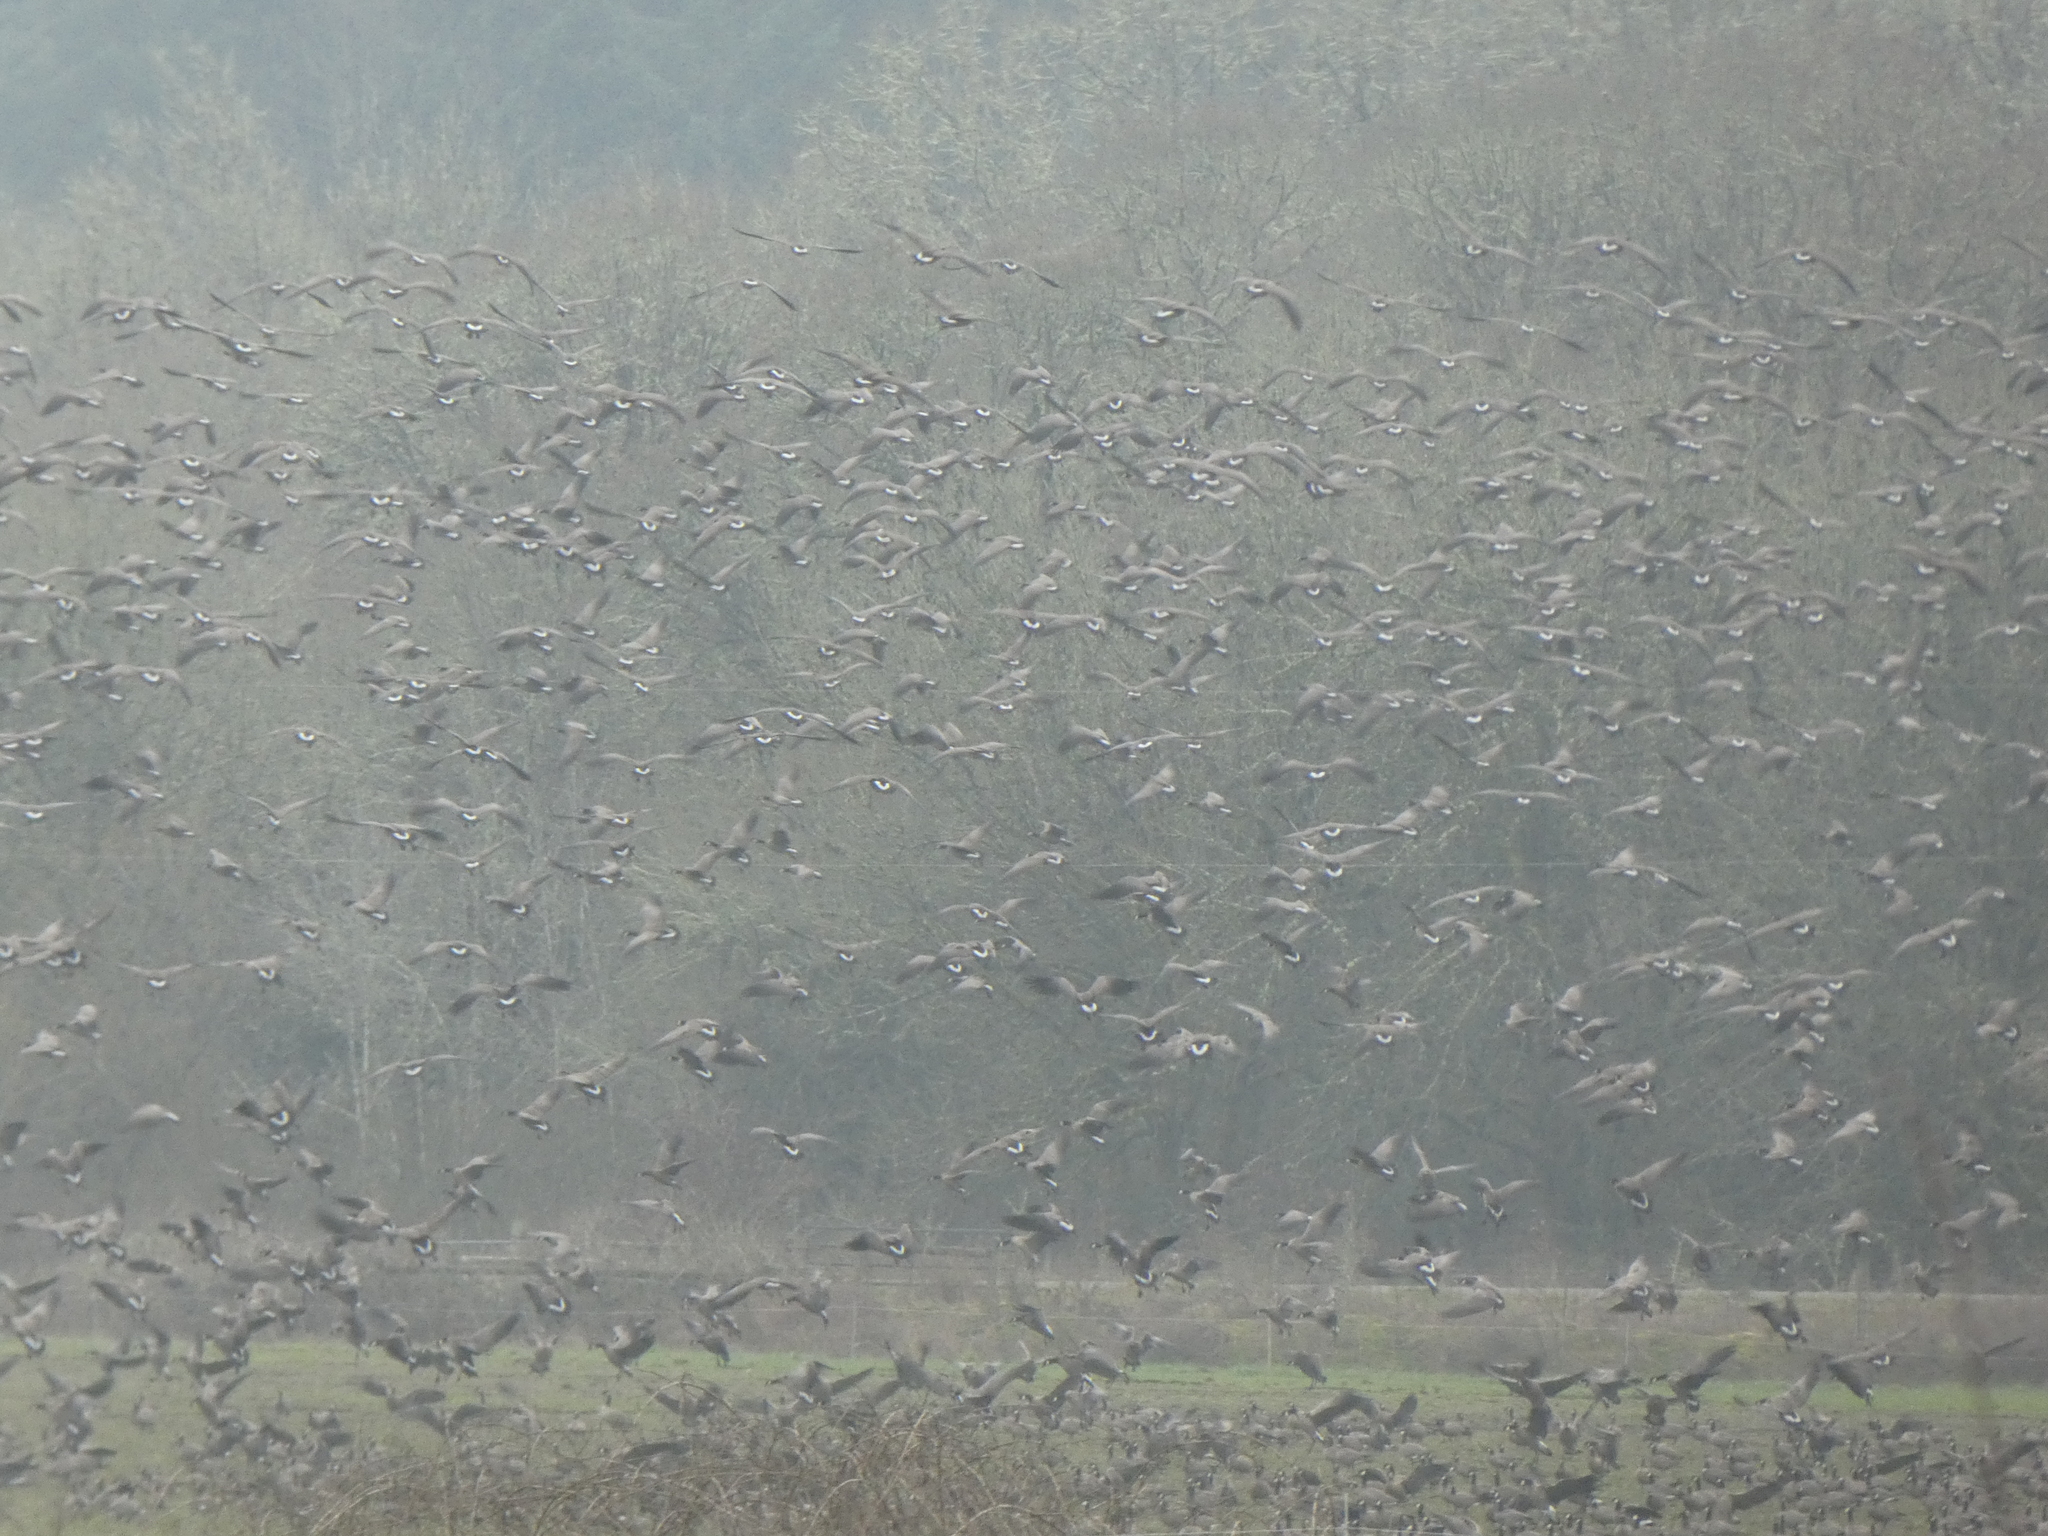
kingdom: Animalia
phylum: Chordata
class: Aves
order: Anseriformes
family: Anatidae
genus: Branta
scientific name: Branta hutchinsii
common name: Cackling goose
